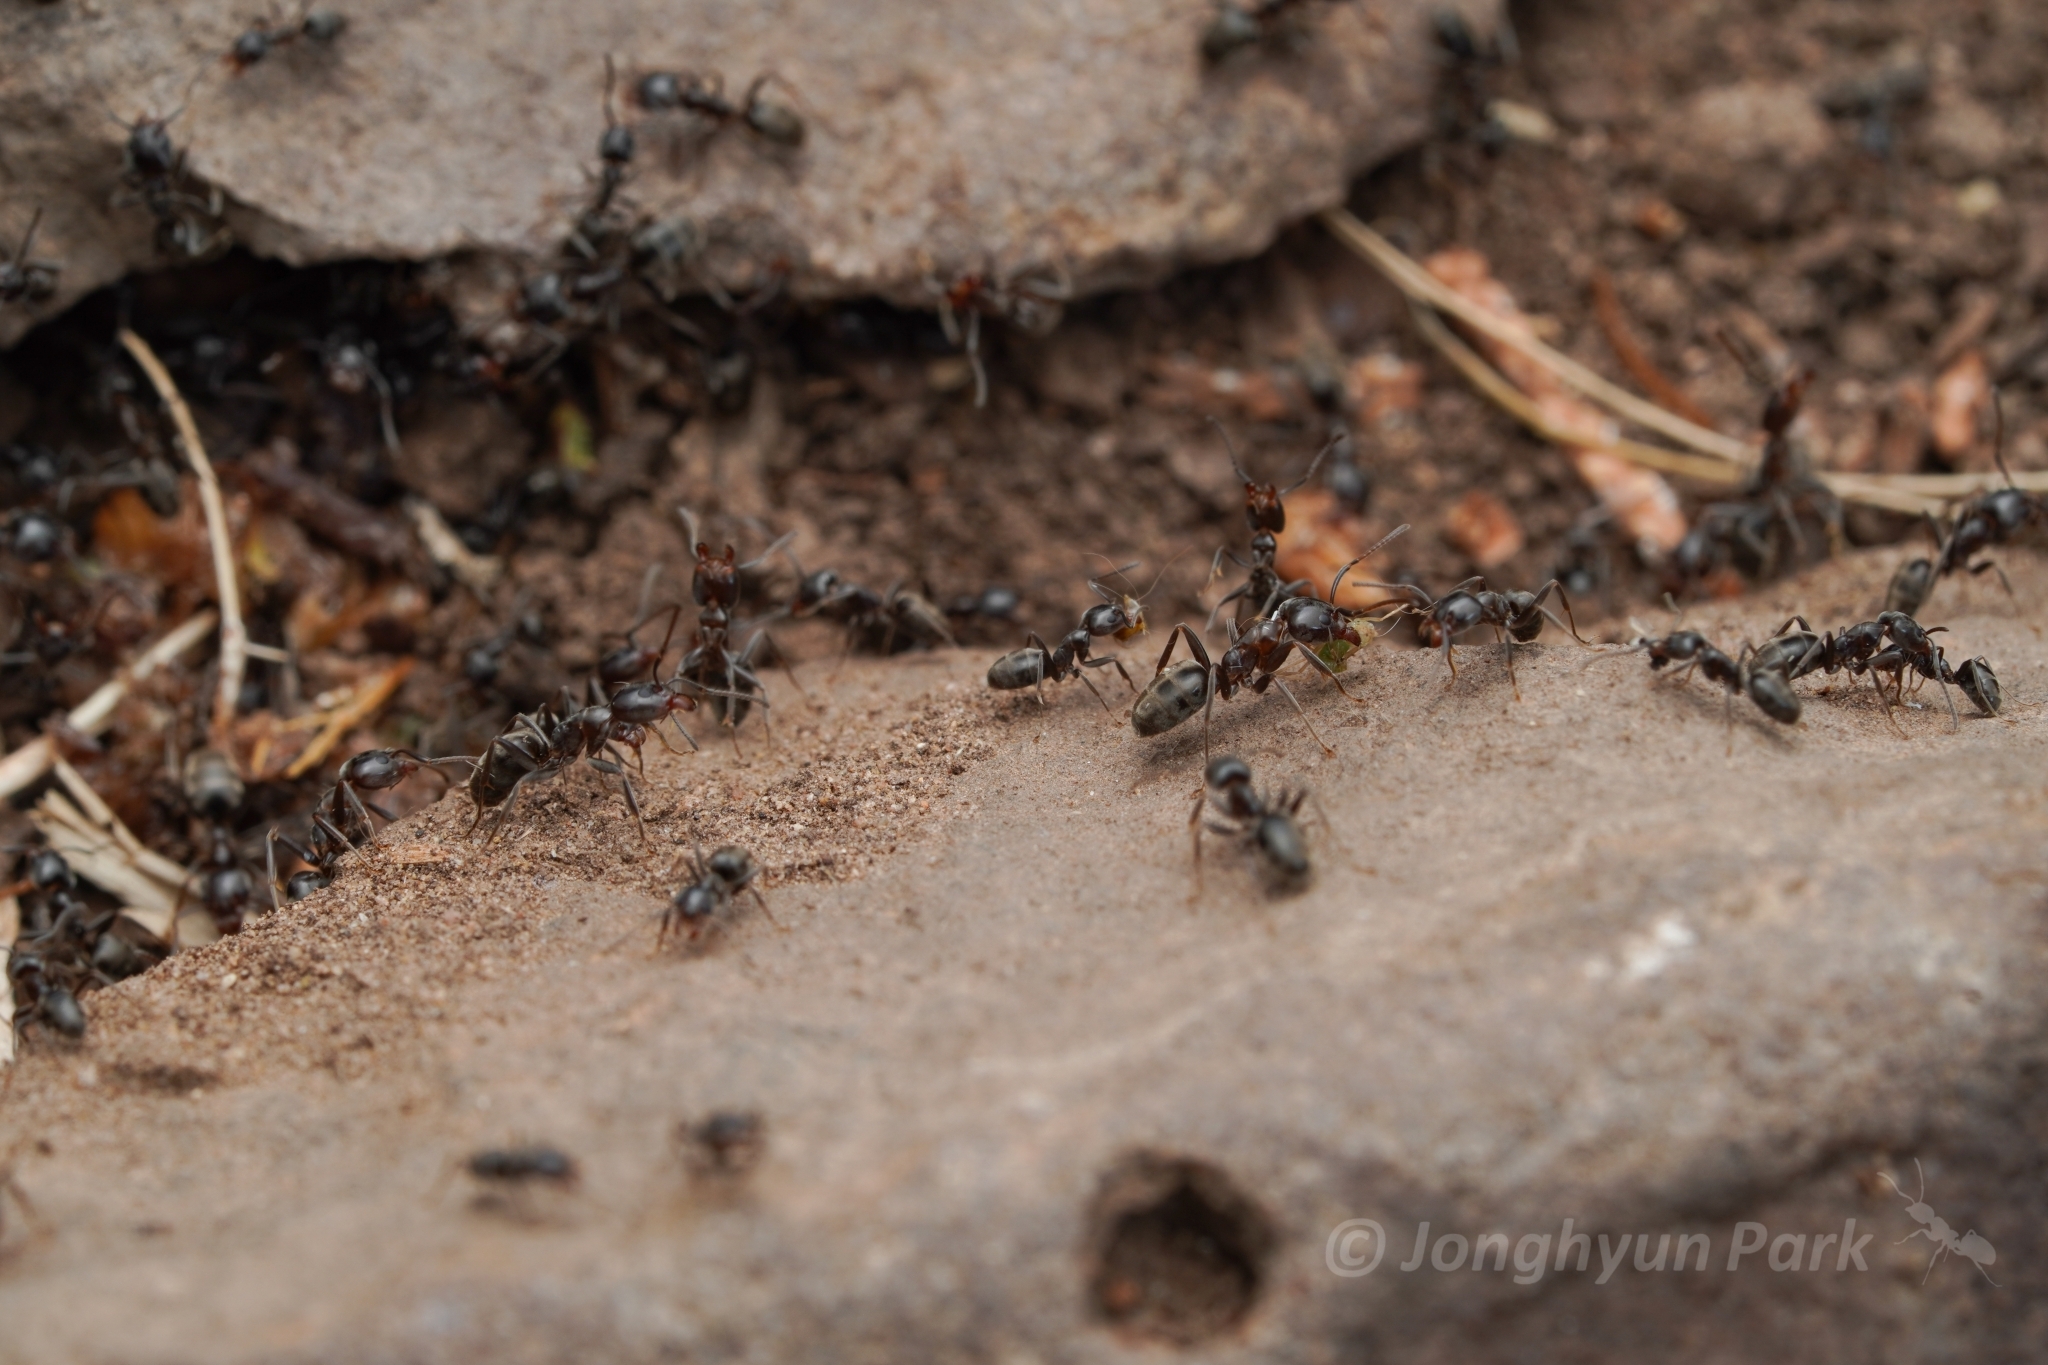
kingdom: Animalia
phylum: Arthropoda
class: Insecta
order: Hymenoptera
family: Formicidae
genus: Liometopum
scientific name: Liometopum luctuosum
